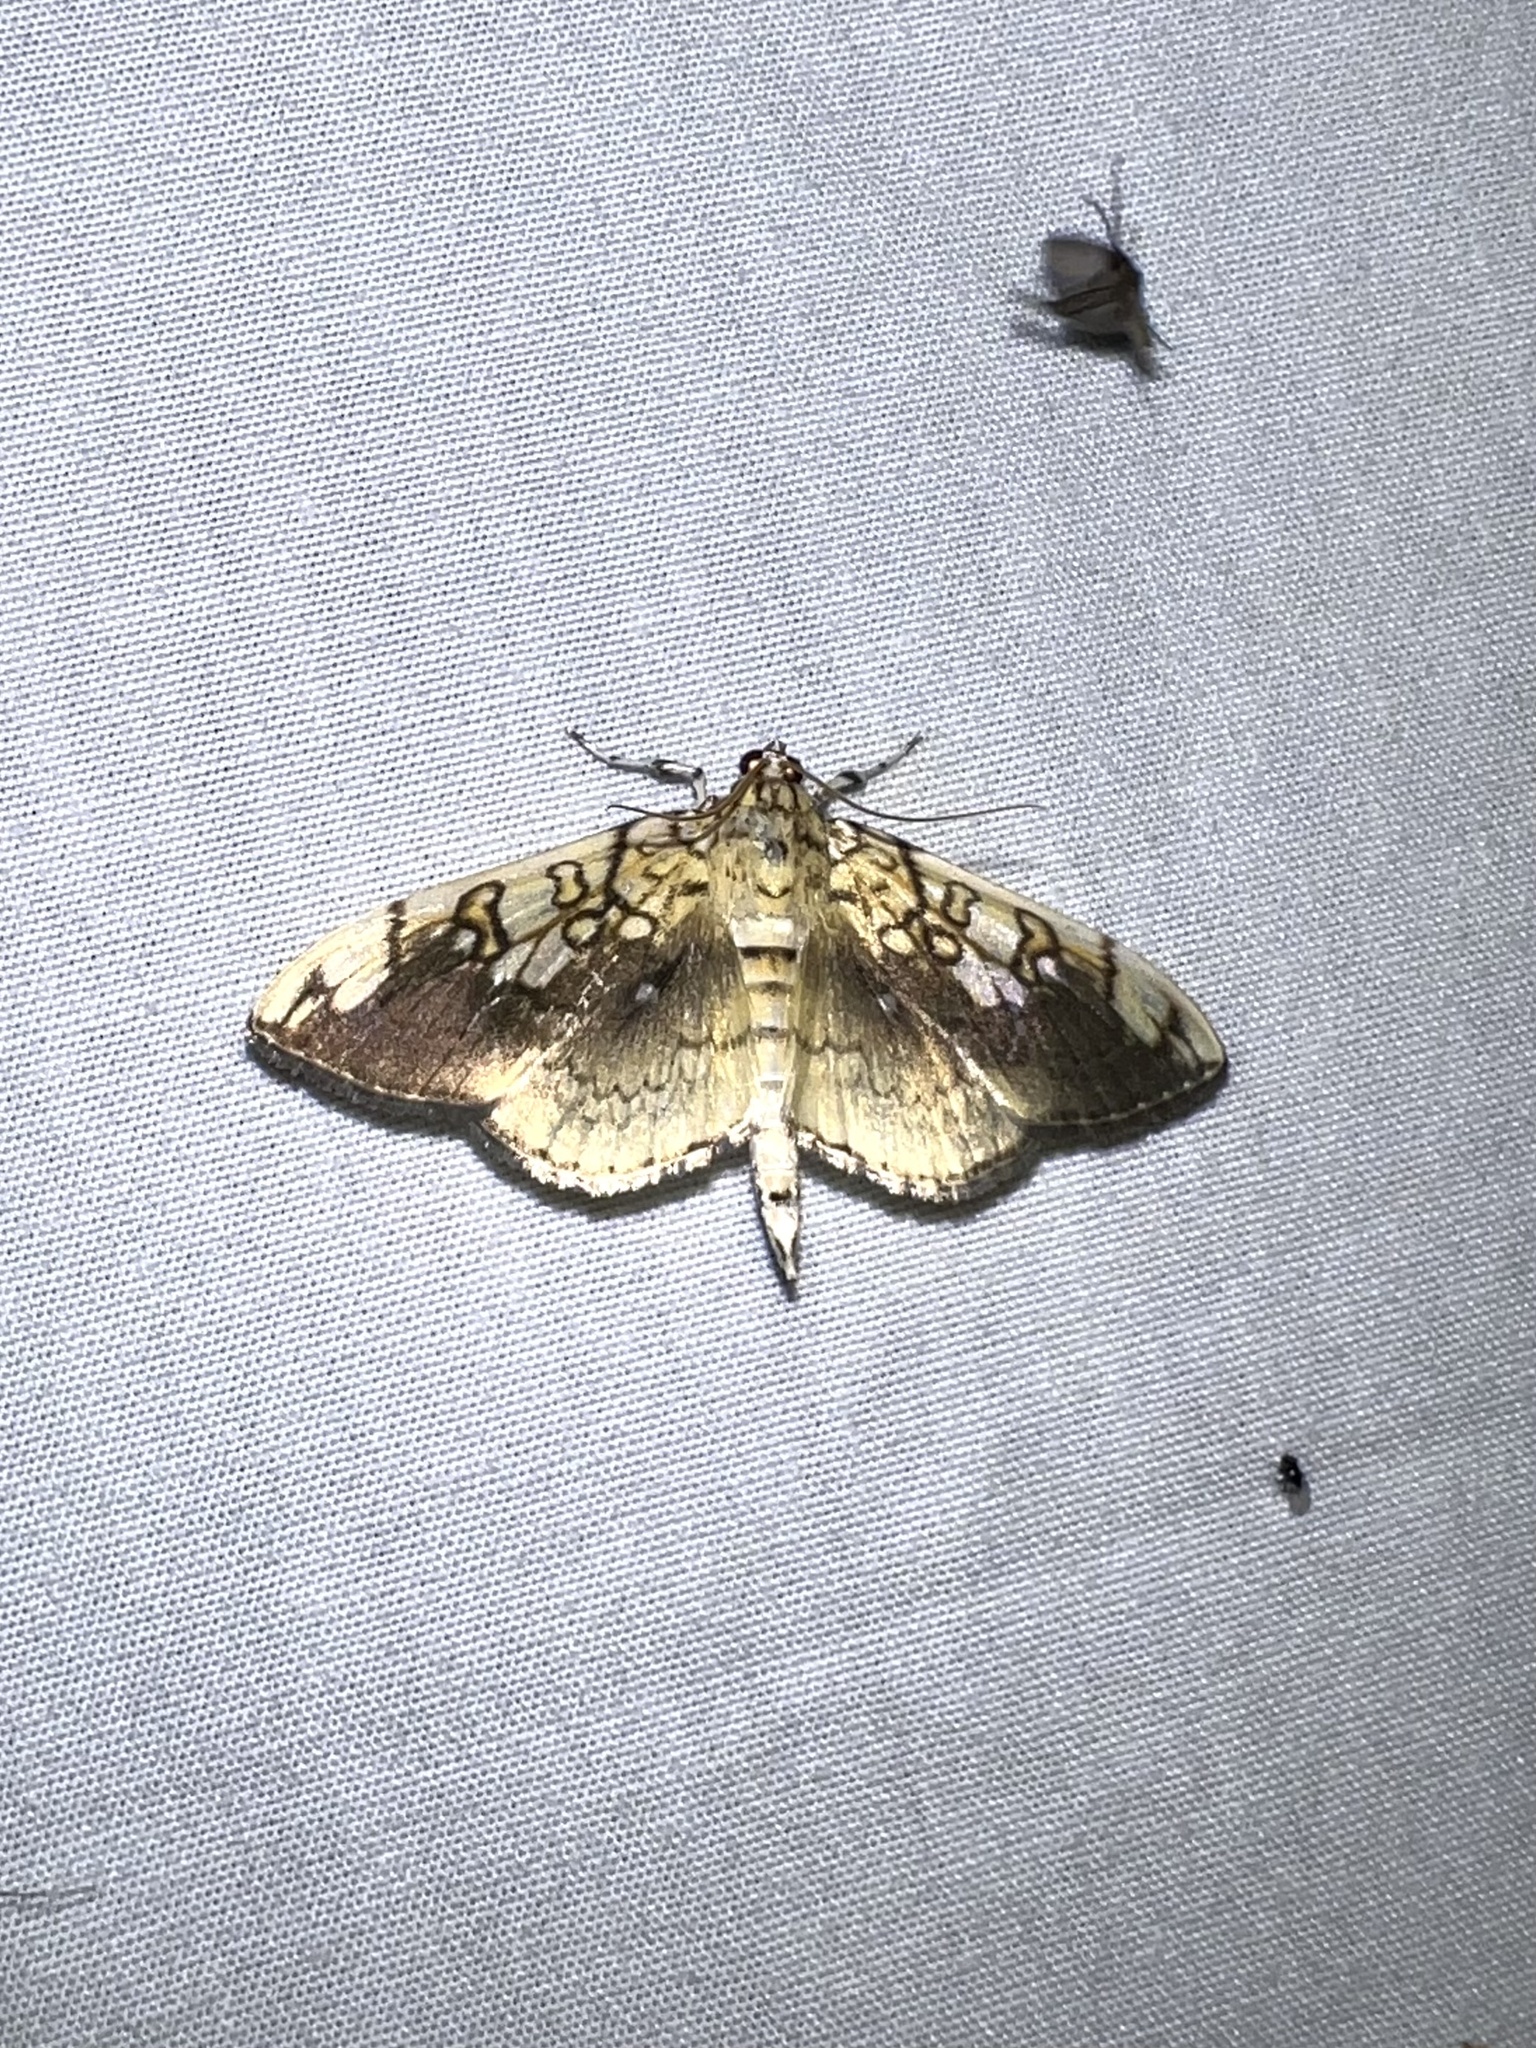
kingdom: Animalia
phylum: Arthropoda
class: Insecta
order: Lepidoptera
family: Crambidae
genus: Pantographa
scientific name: Pantographa limata
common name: Basswood leafroller moth
